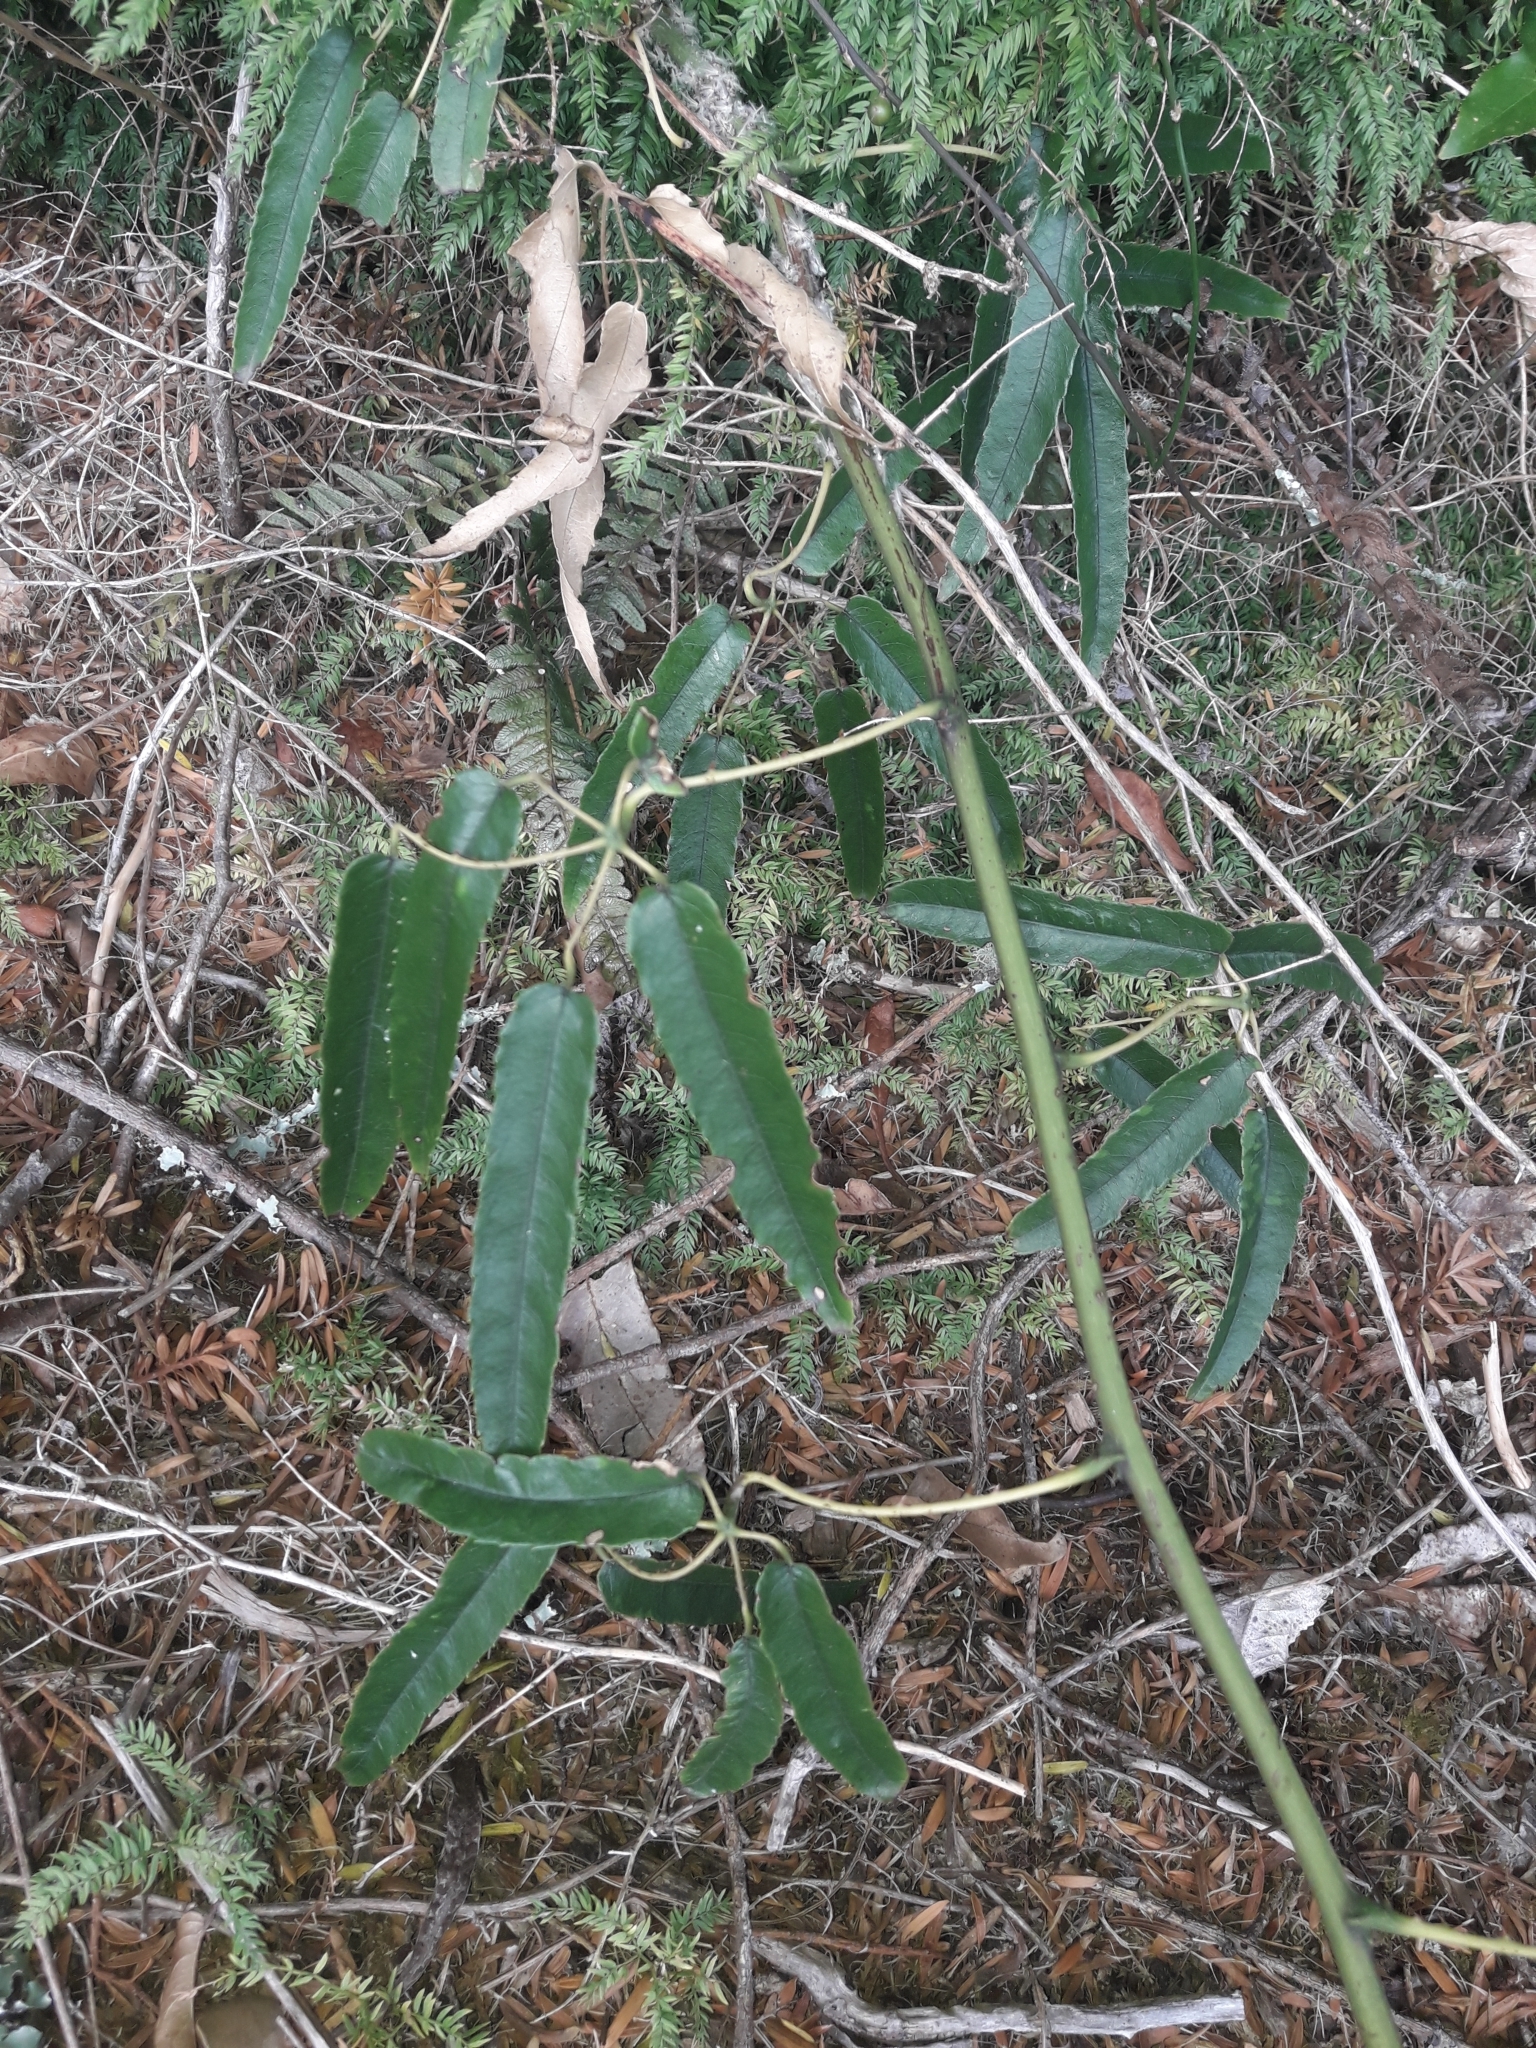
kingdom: Plantae
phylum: Tracheophyta
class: Magnoliopsida
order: Rosales
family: Rosaceae
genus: Rubus
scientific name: Rubus cissoides
